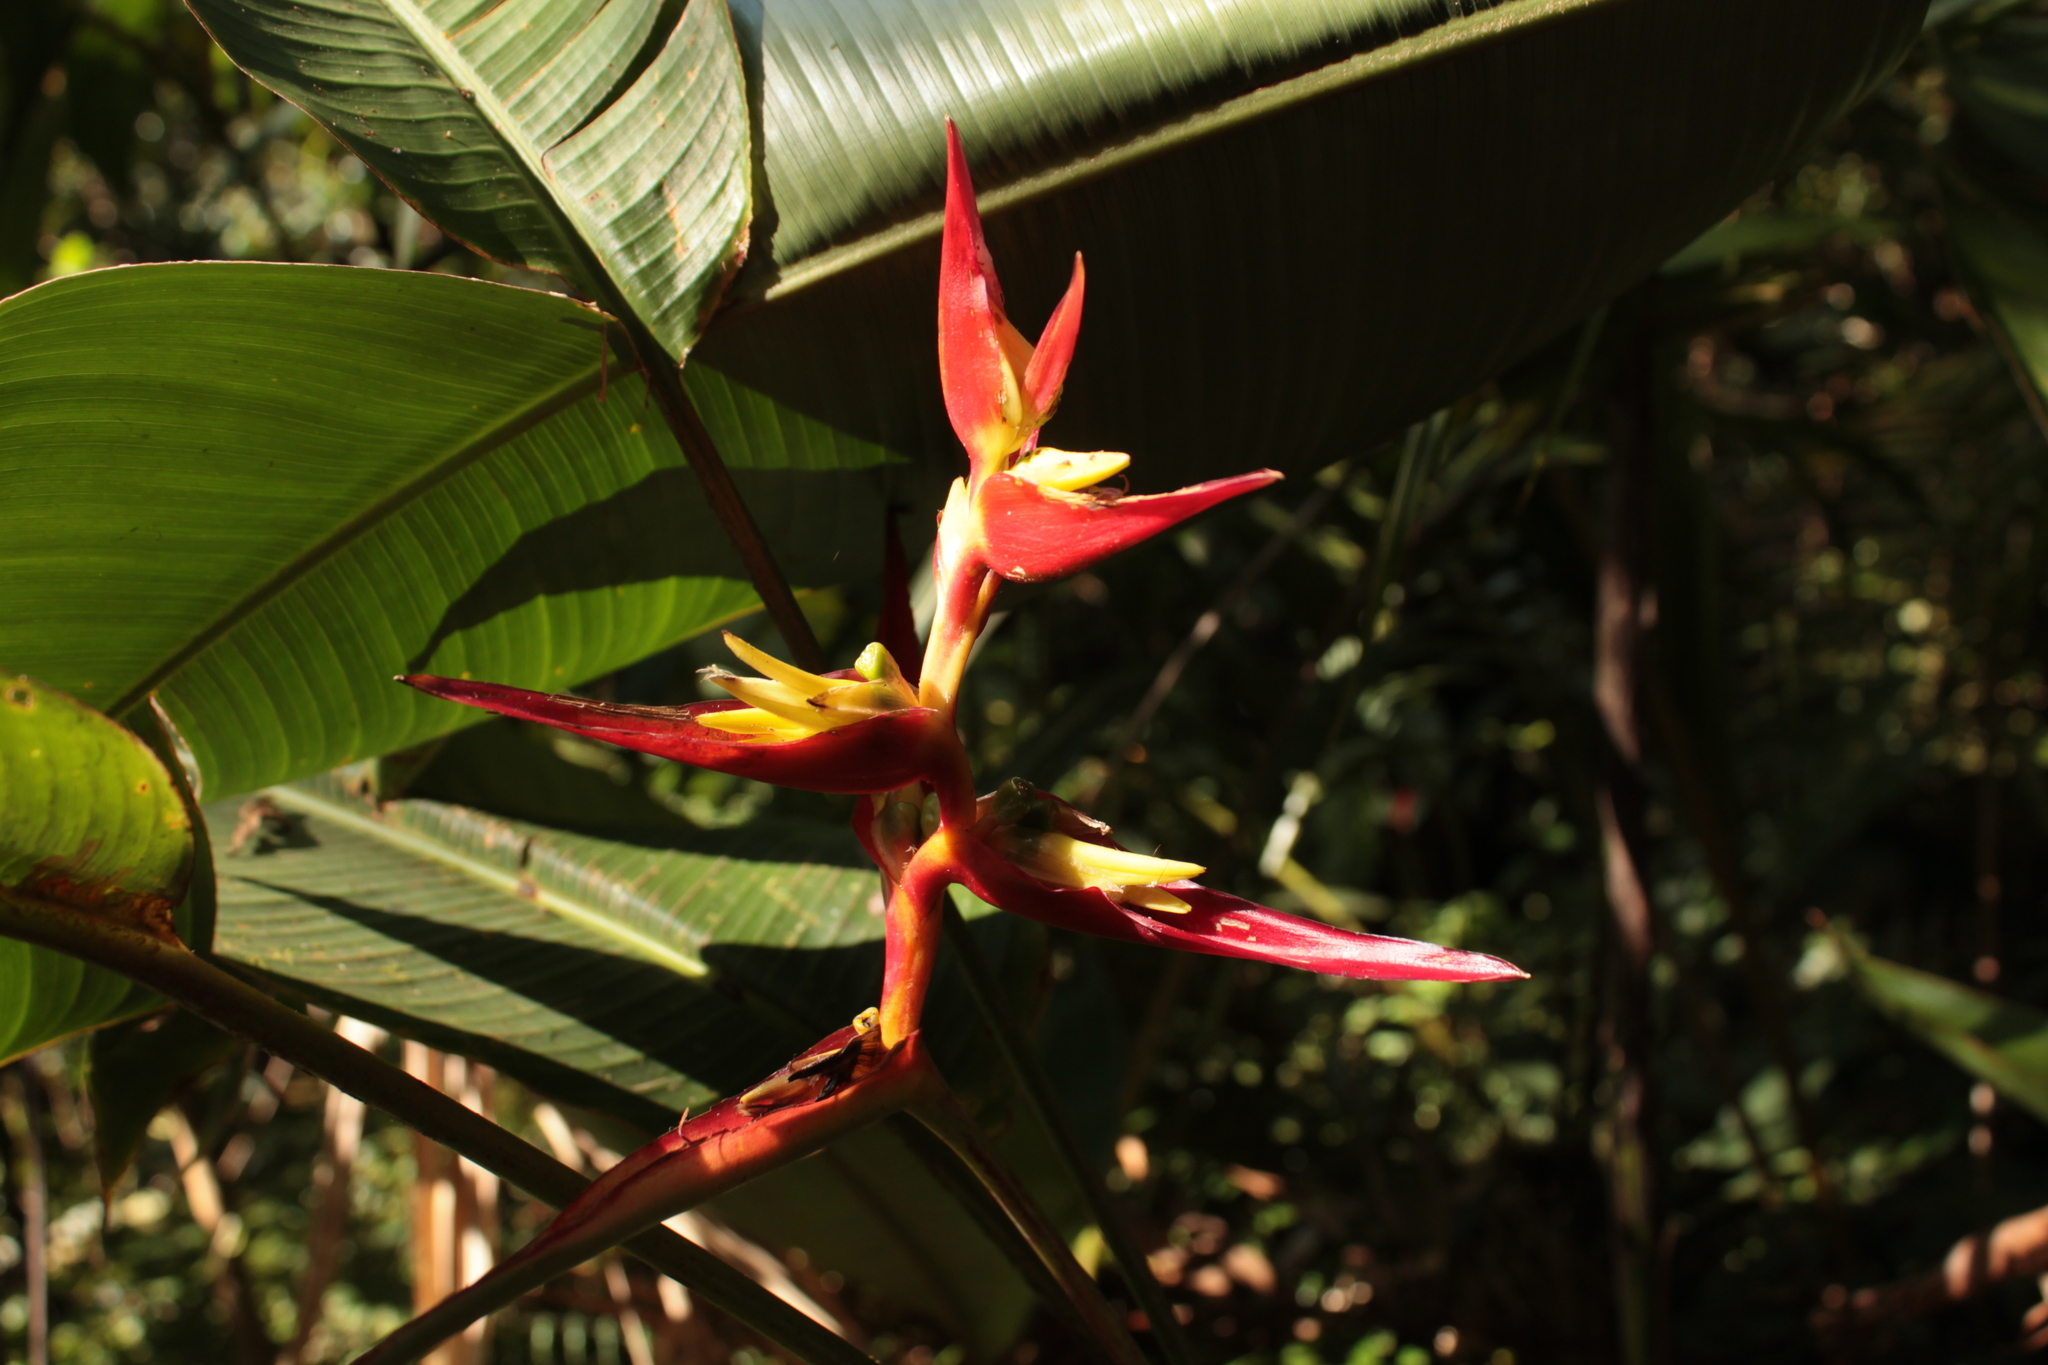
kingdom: Plantae
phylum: Tracheophyta
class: Liliopsida
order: Zingiberales
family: Heliconiaceae
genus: Heliconia
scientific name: Heliconia monteverdensis
